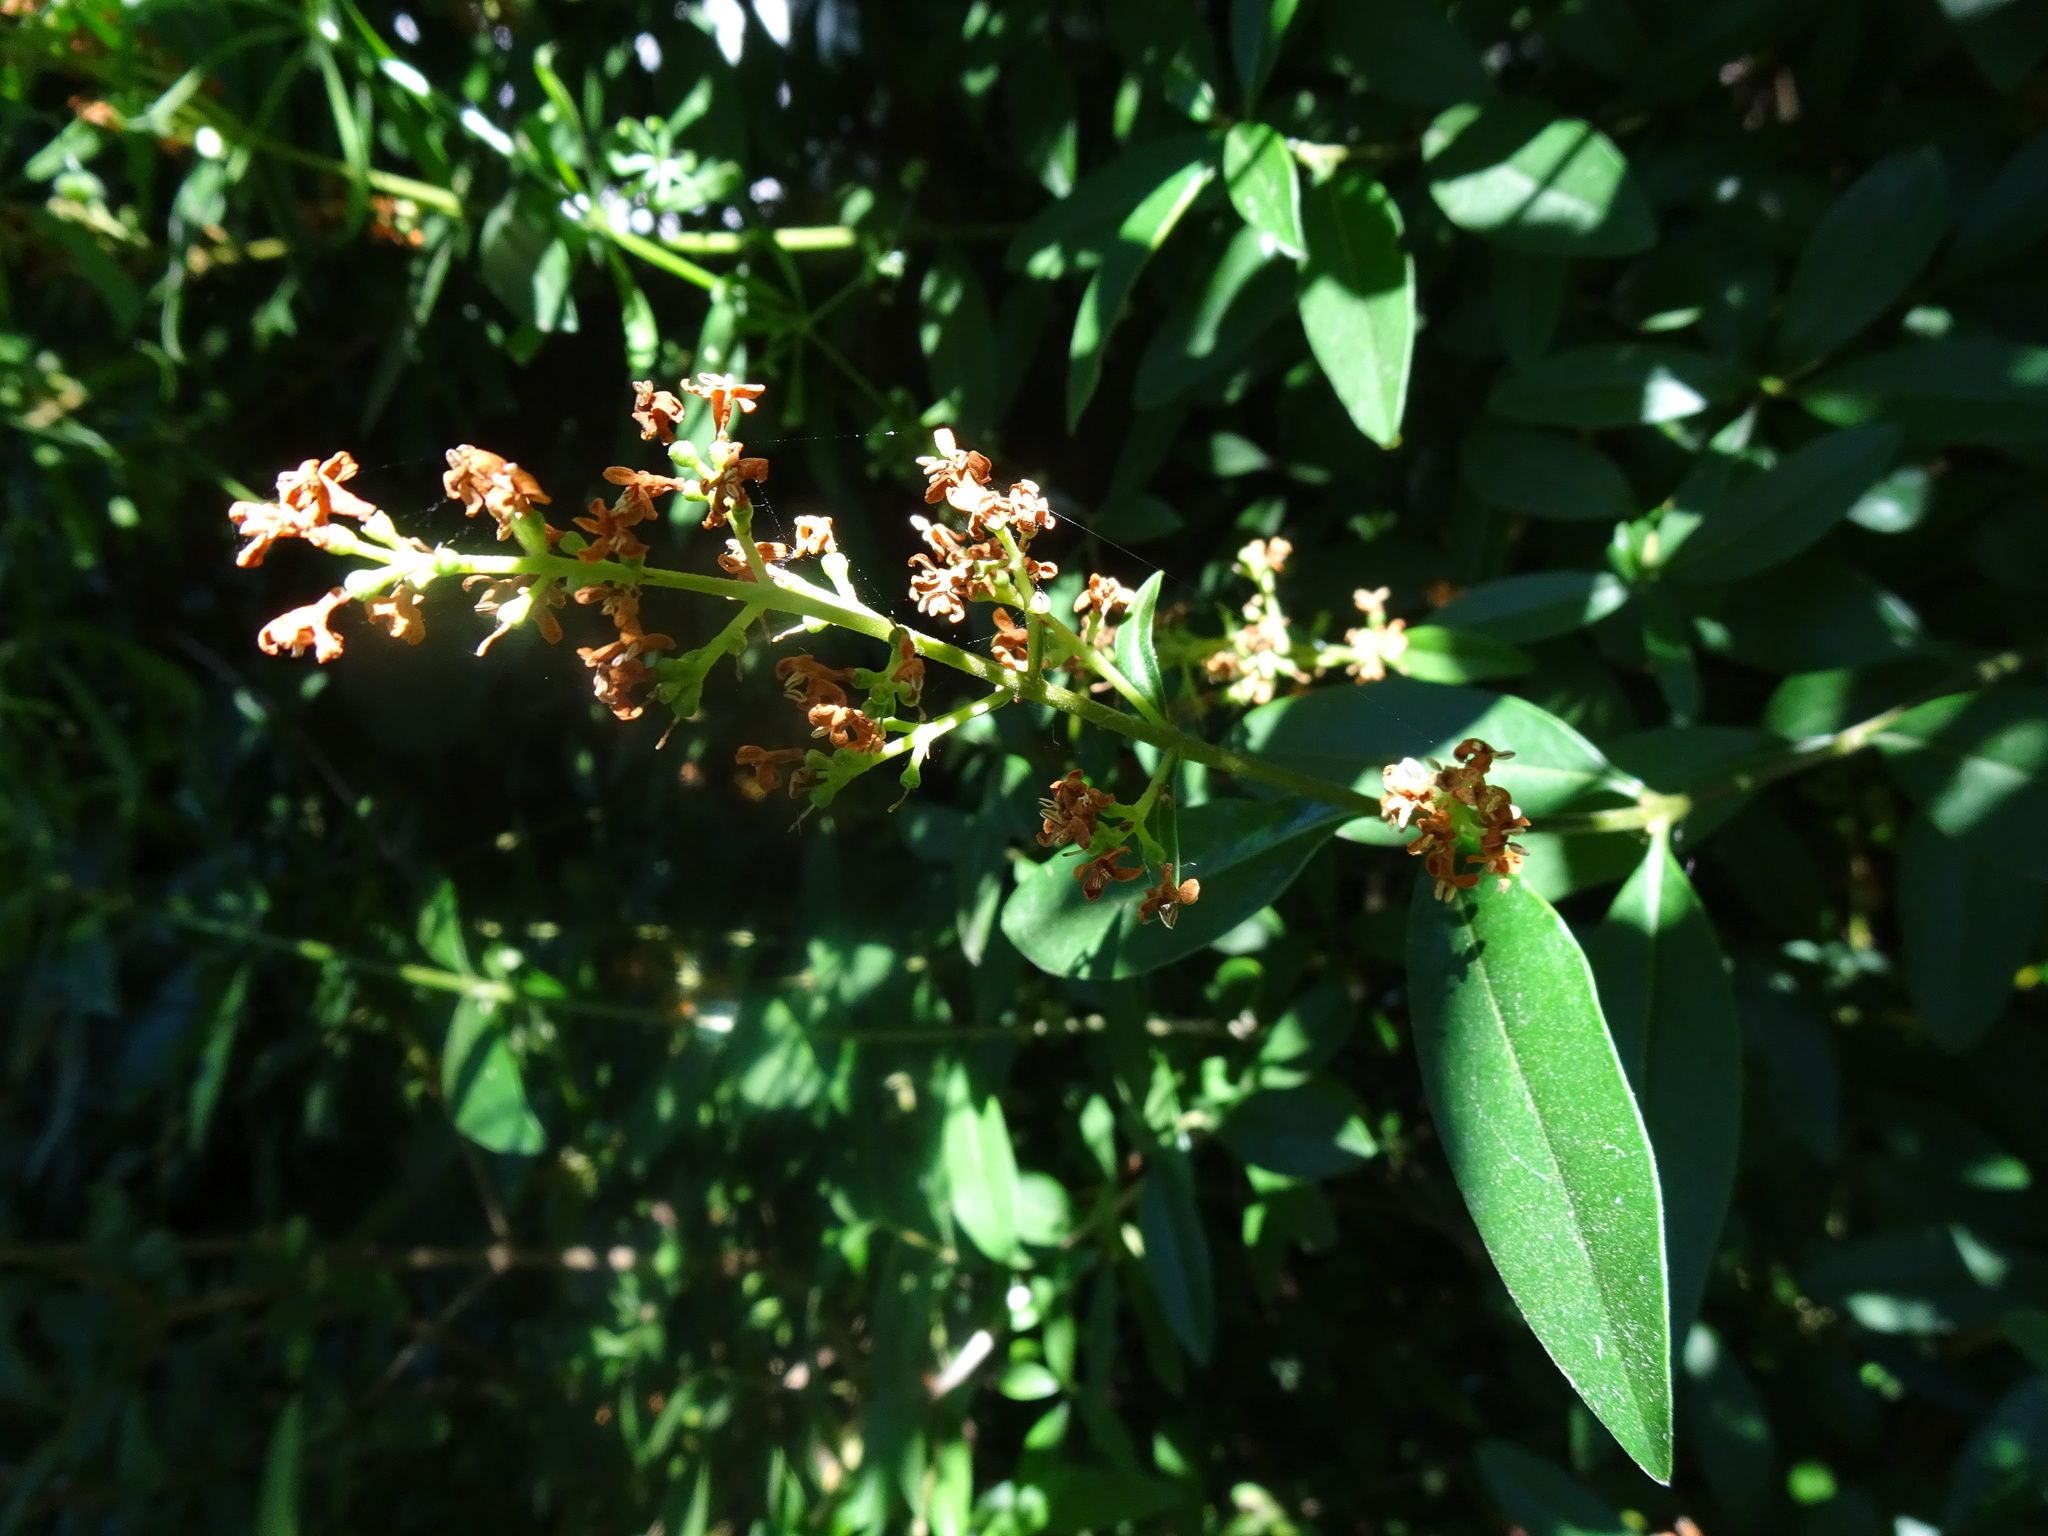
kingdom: Plantae
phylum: Tracheophyta
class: Magnoliopsida
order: Lamiales
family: Oleaceae
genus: Ligustrum
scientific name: Ligustrum vulgare
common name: Wild privet
